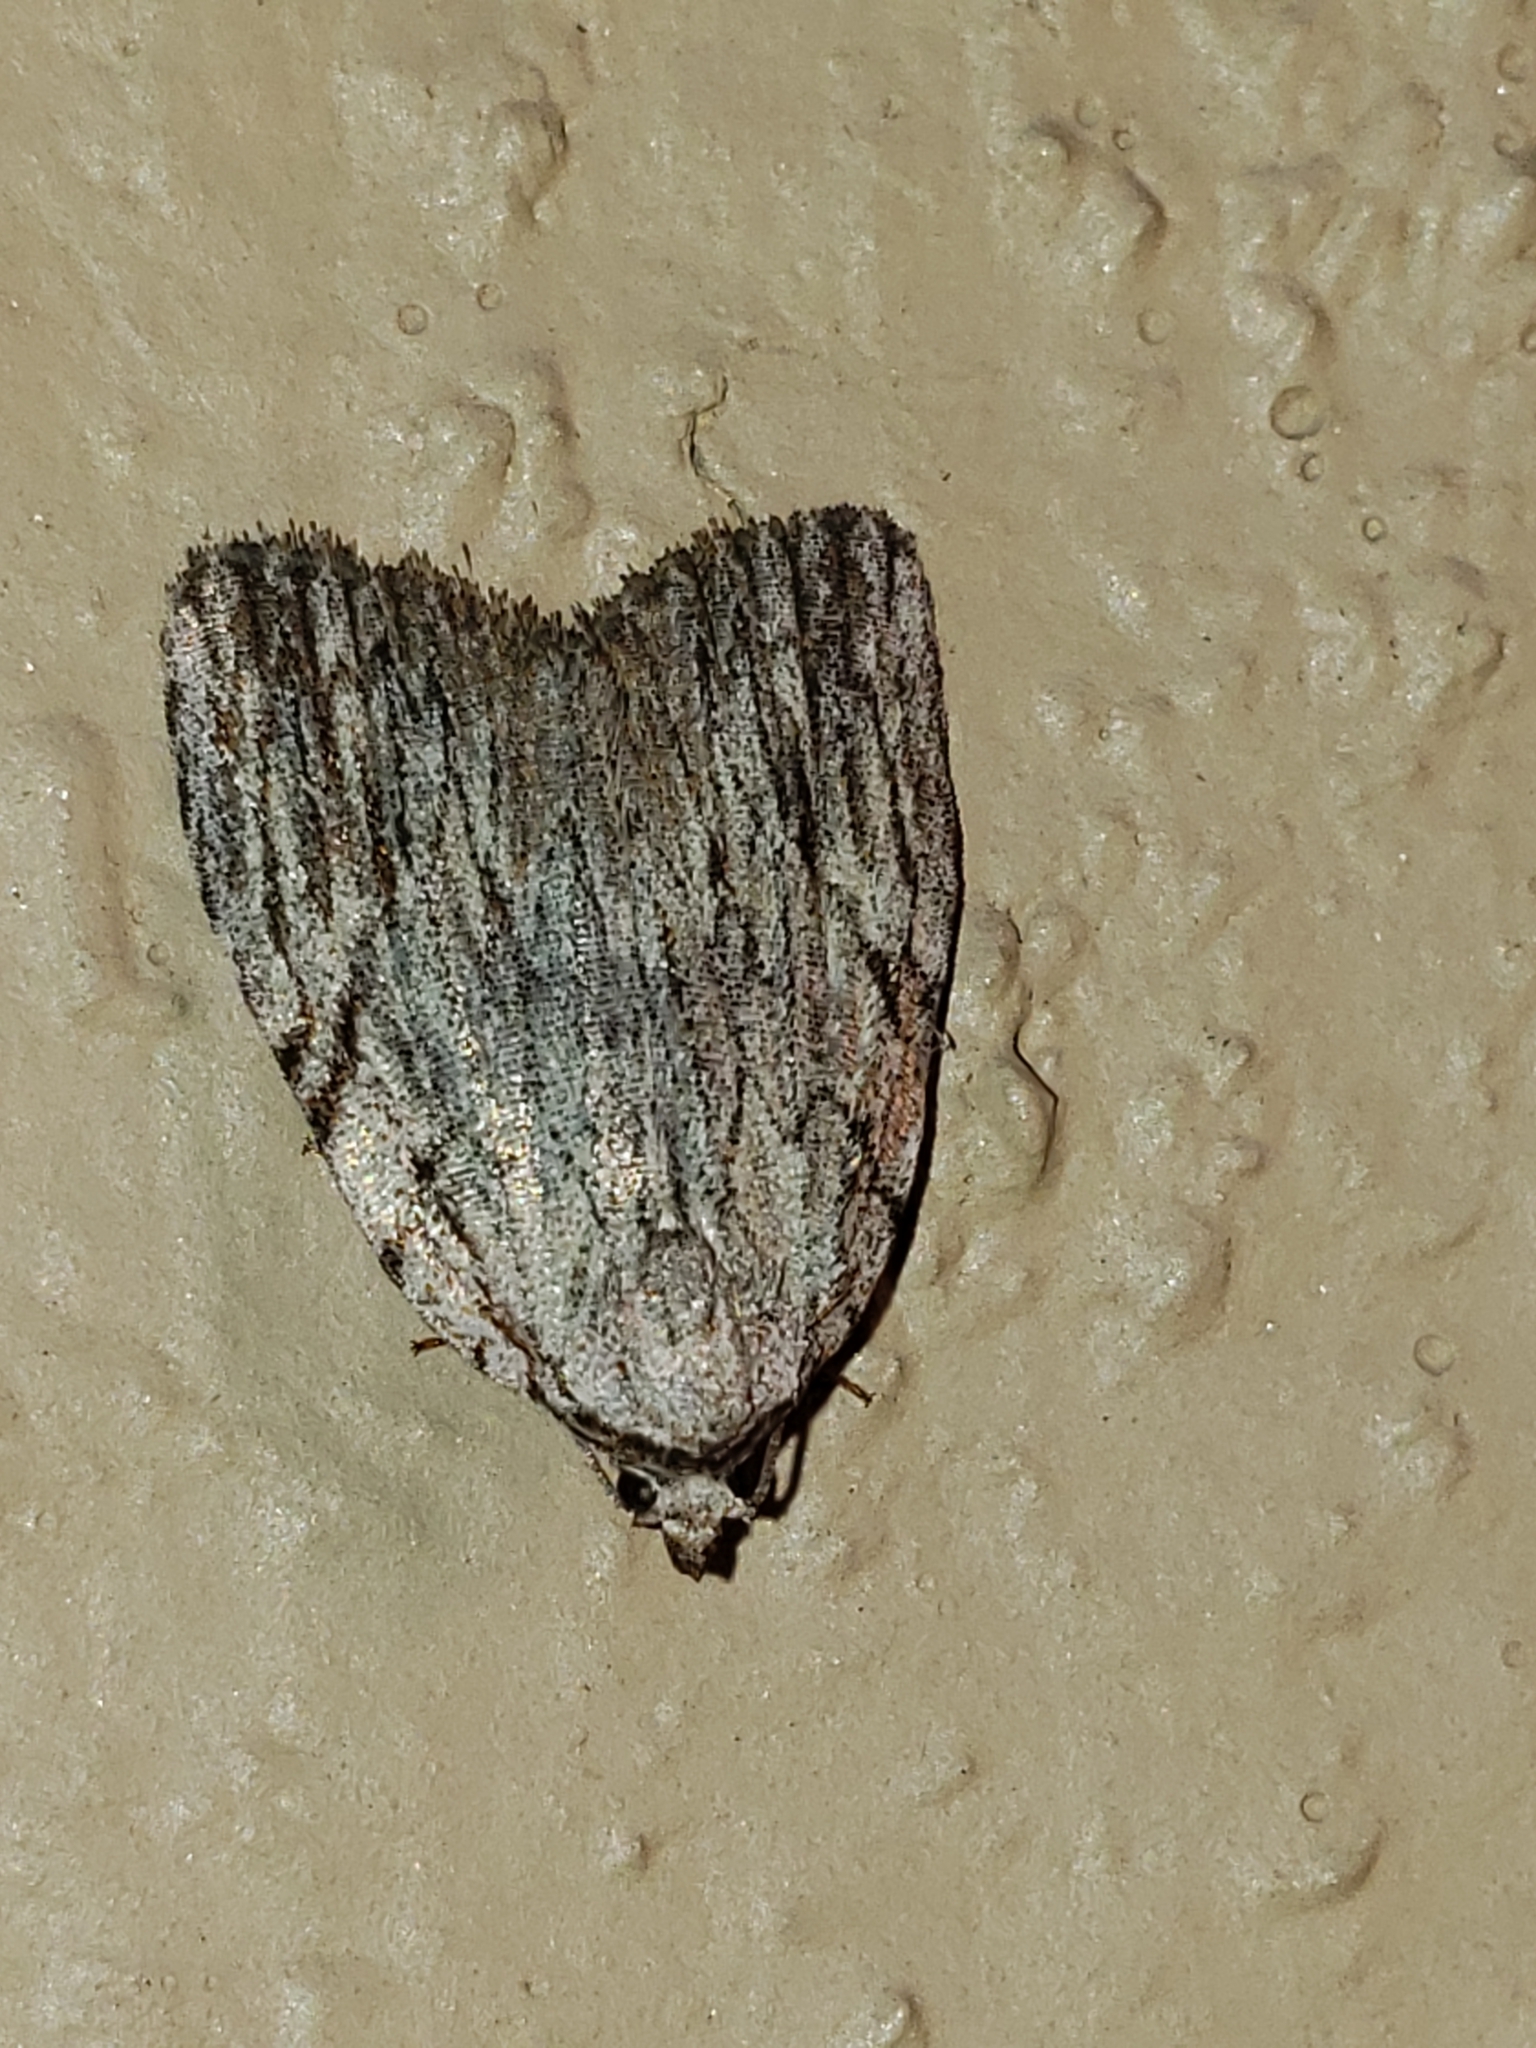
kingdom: Animalia
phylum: Arthropoda
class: Insecta
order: Lepidoptera
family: Noctuidae
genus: Balsa
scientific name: Balsa tristrigella
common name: Three-lined balsa moth
